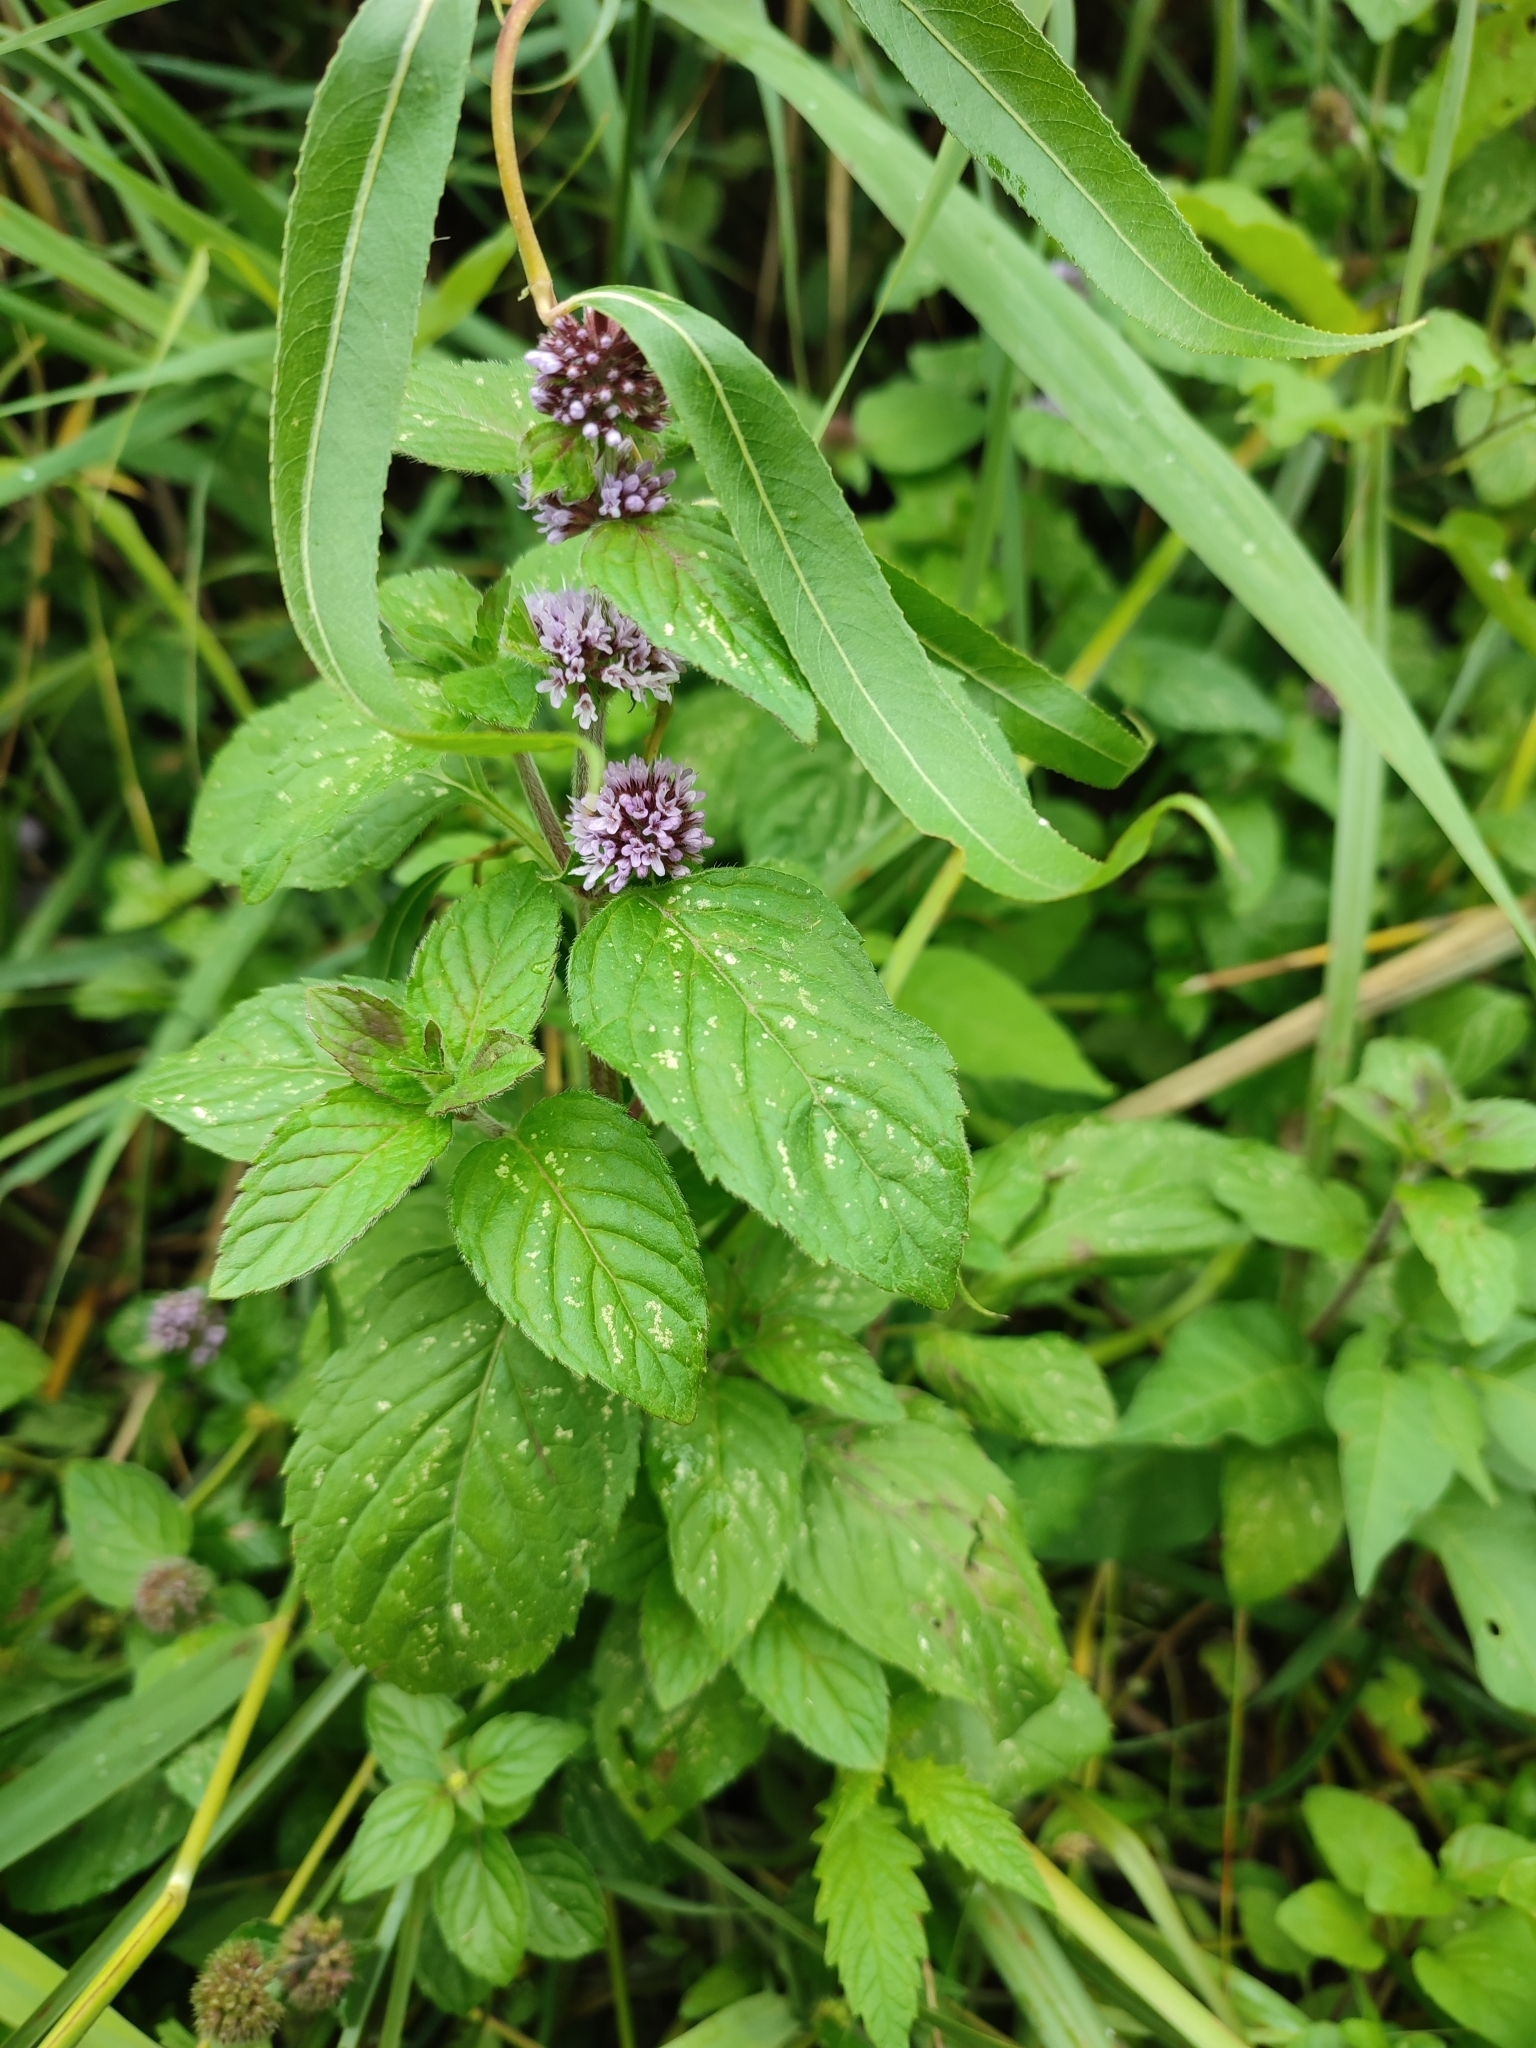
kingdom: Plantae
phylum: Tracheophyta
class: Magnoliopsida
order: Lamiales
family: Lamiaceae
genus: Mentha
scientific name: Mentha aquatica
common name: Water mint
